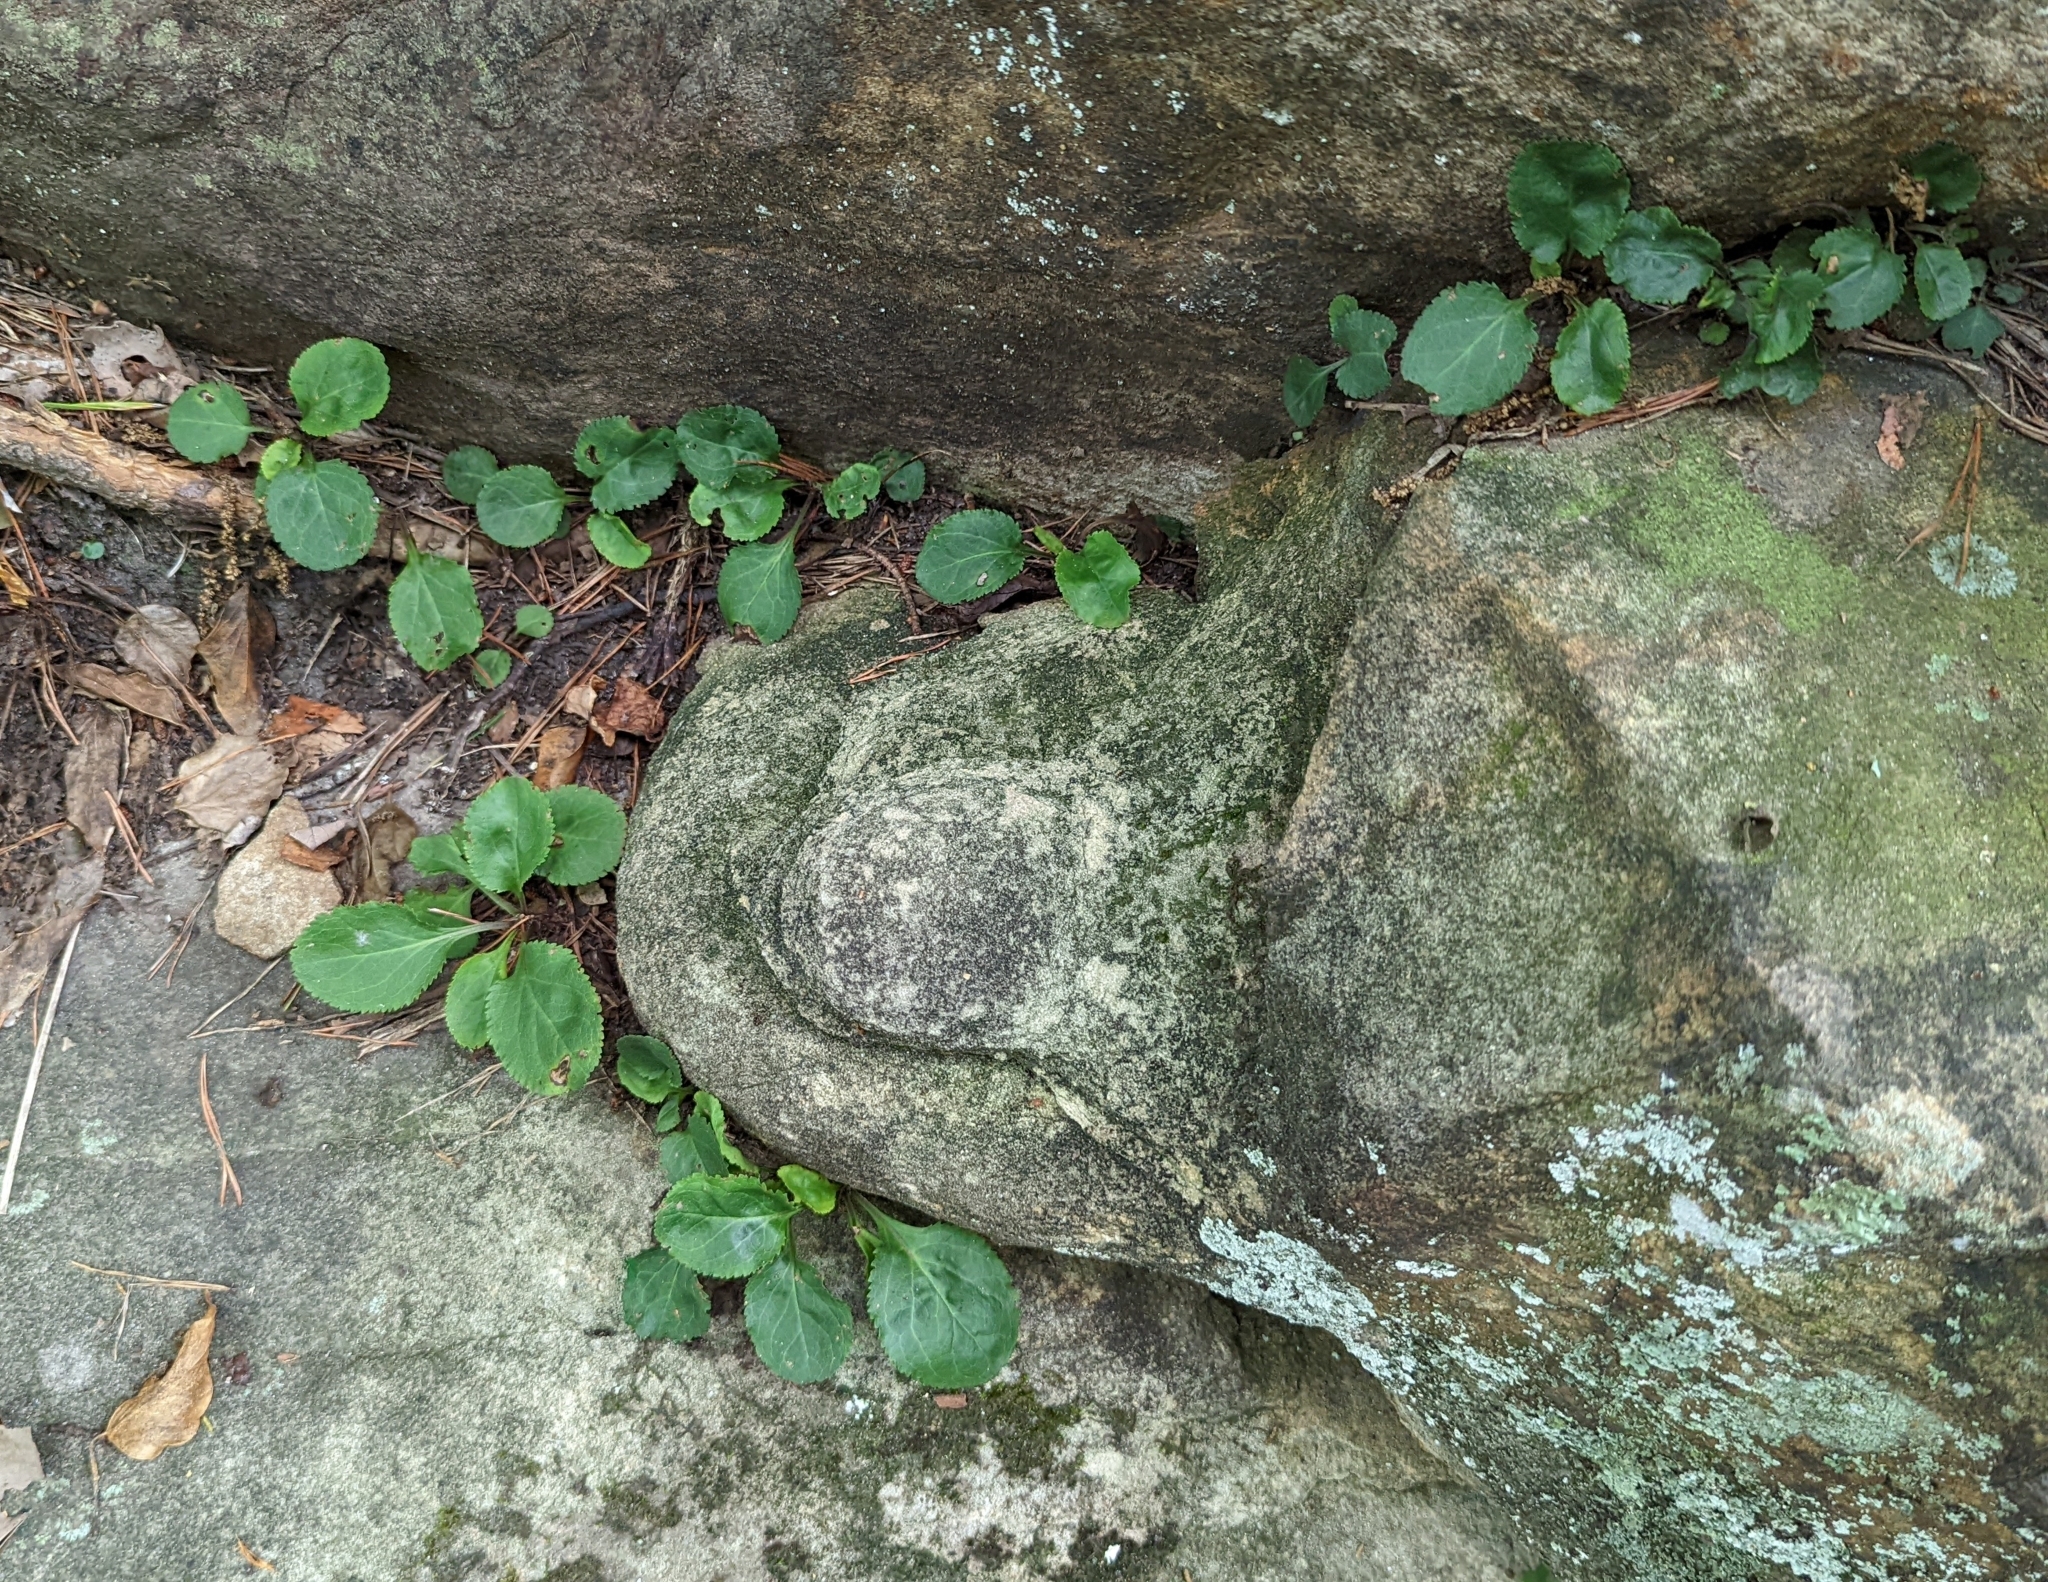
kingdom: Plantae
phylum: Tracheophyta
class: Magnoliopsida
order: Asterales
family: Asteraceae
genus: Packera
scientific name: Packera obovata
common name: Round-leaf ragwort
